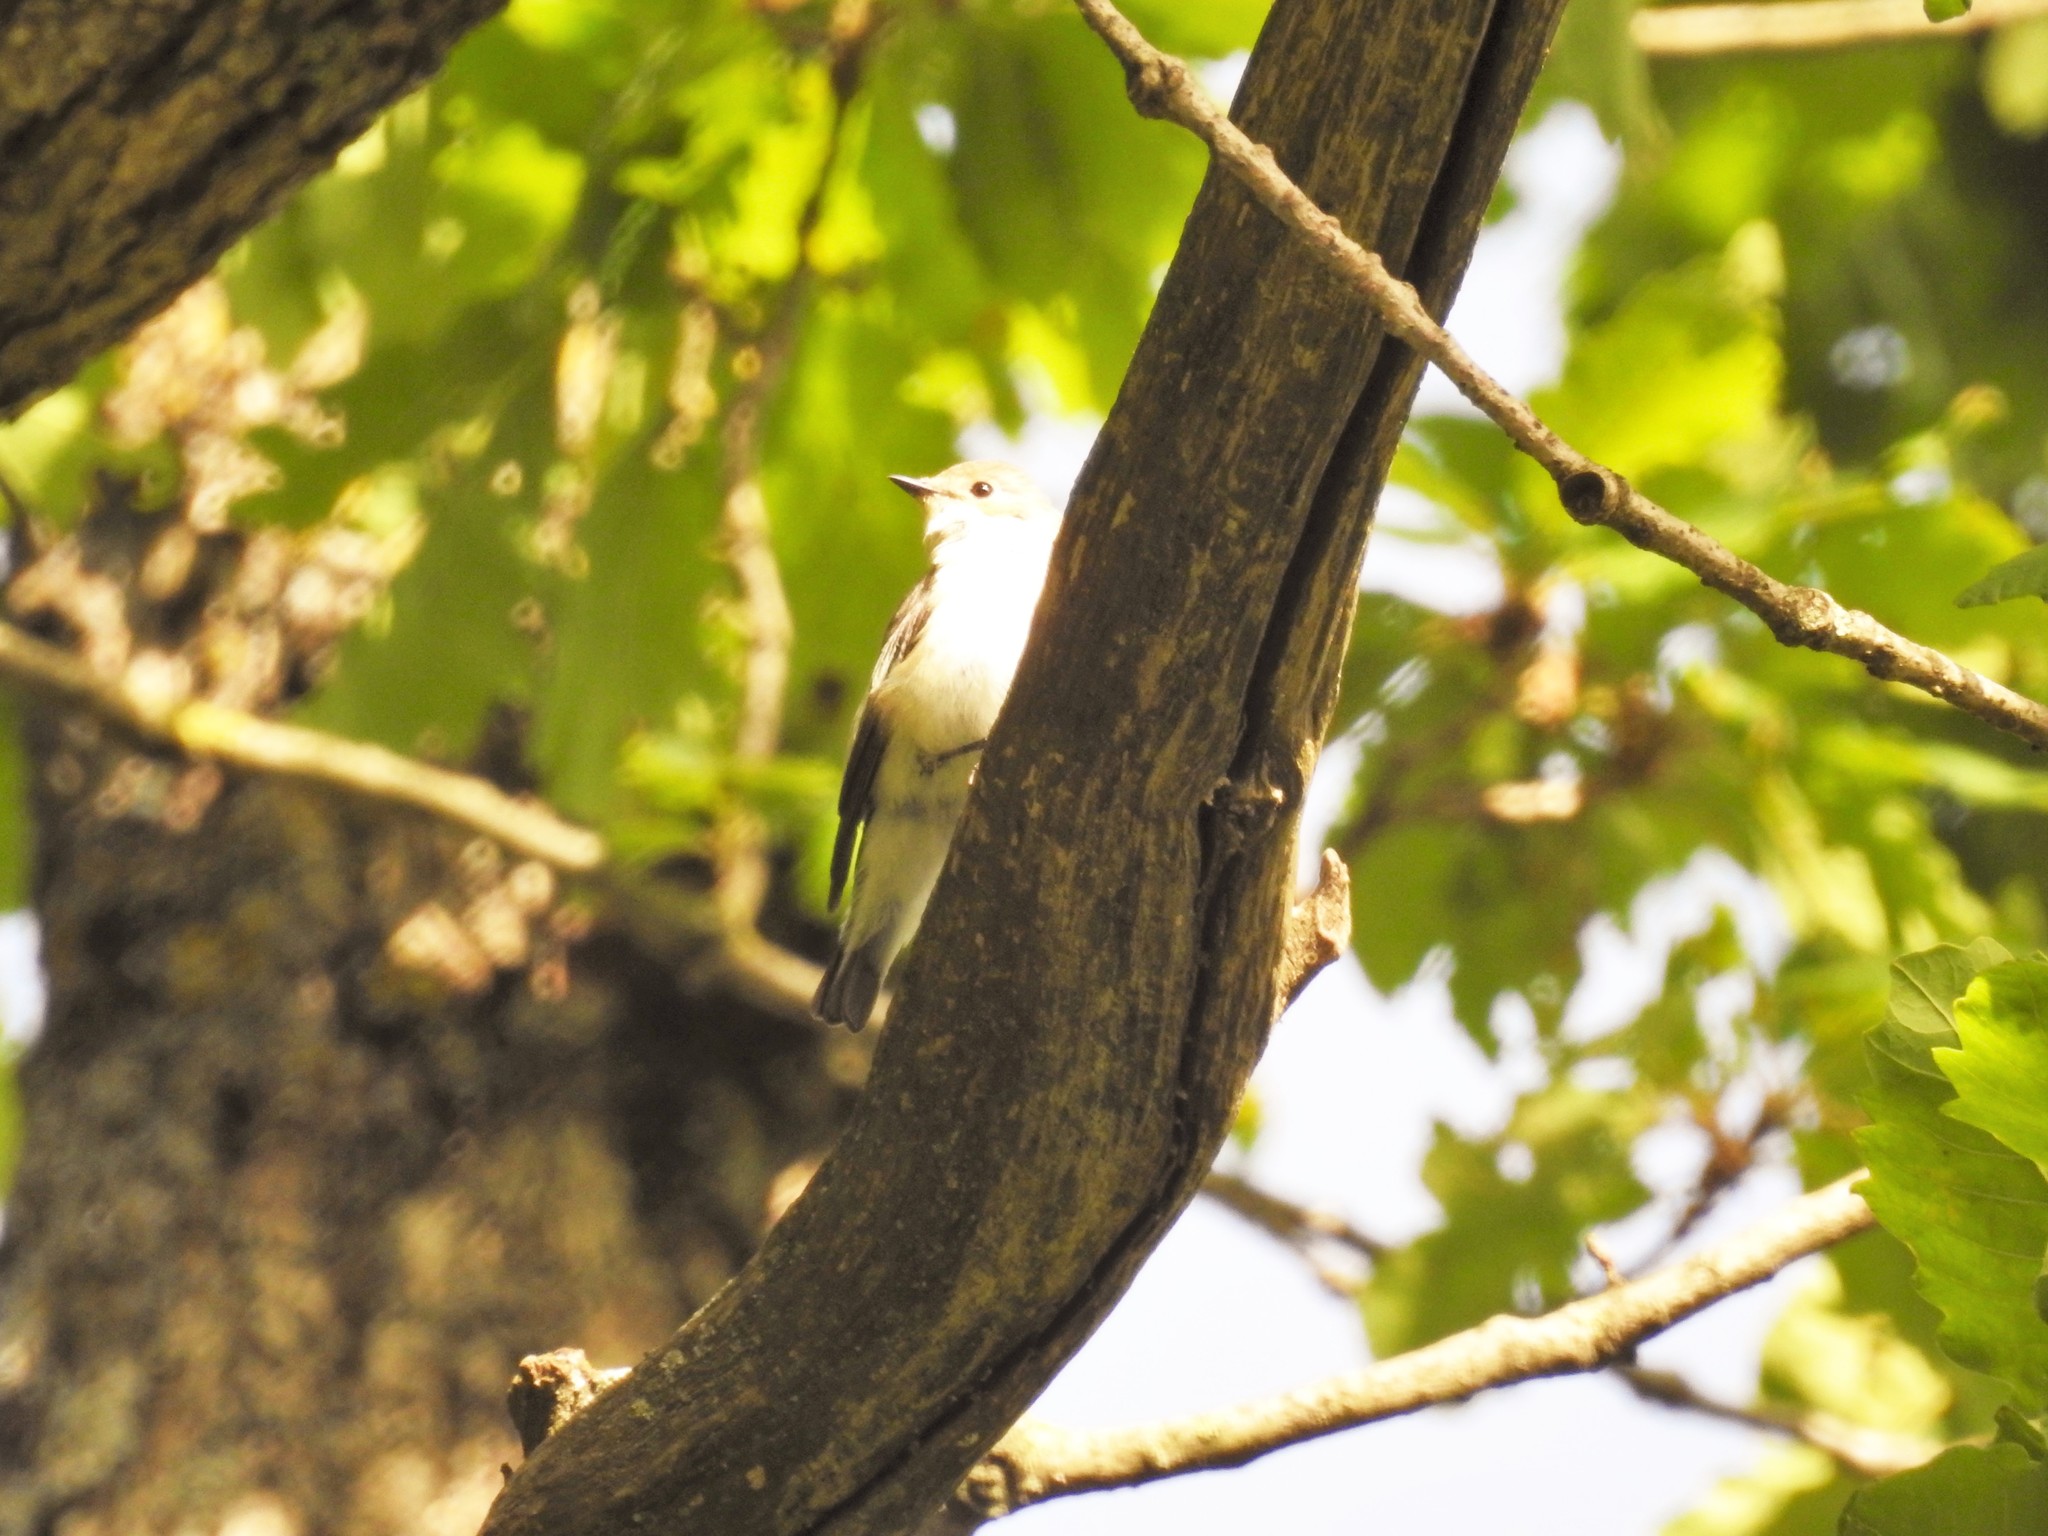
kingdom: Animalia
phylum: Chordata
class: Aves
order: Passeriformes
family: Muscicapidae
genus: Ficedula
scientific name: Ficedula speculigera
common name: Atlas pied flycatcher
